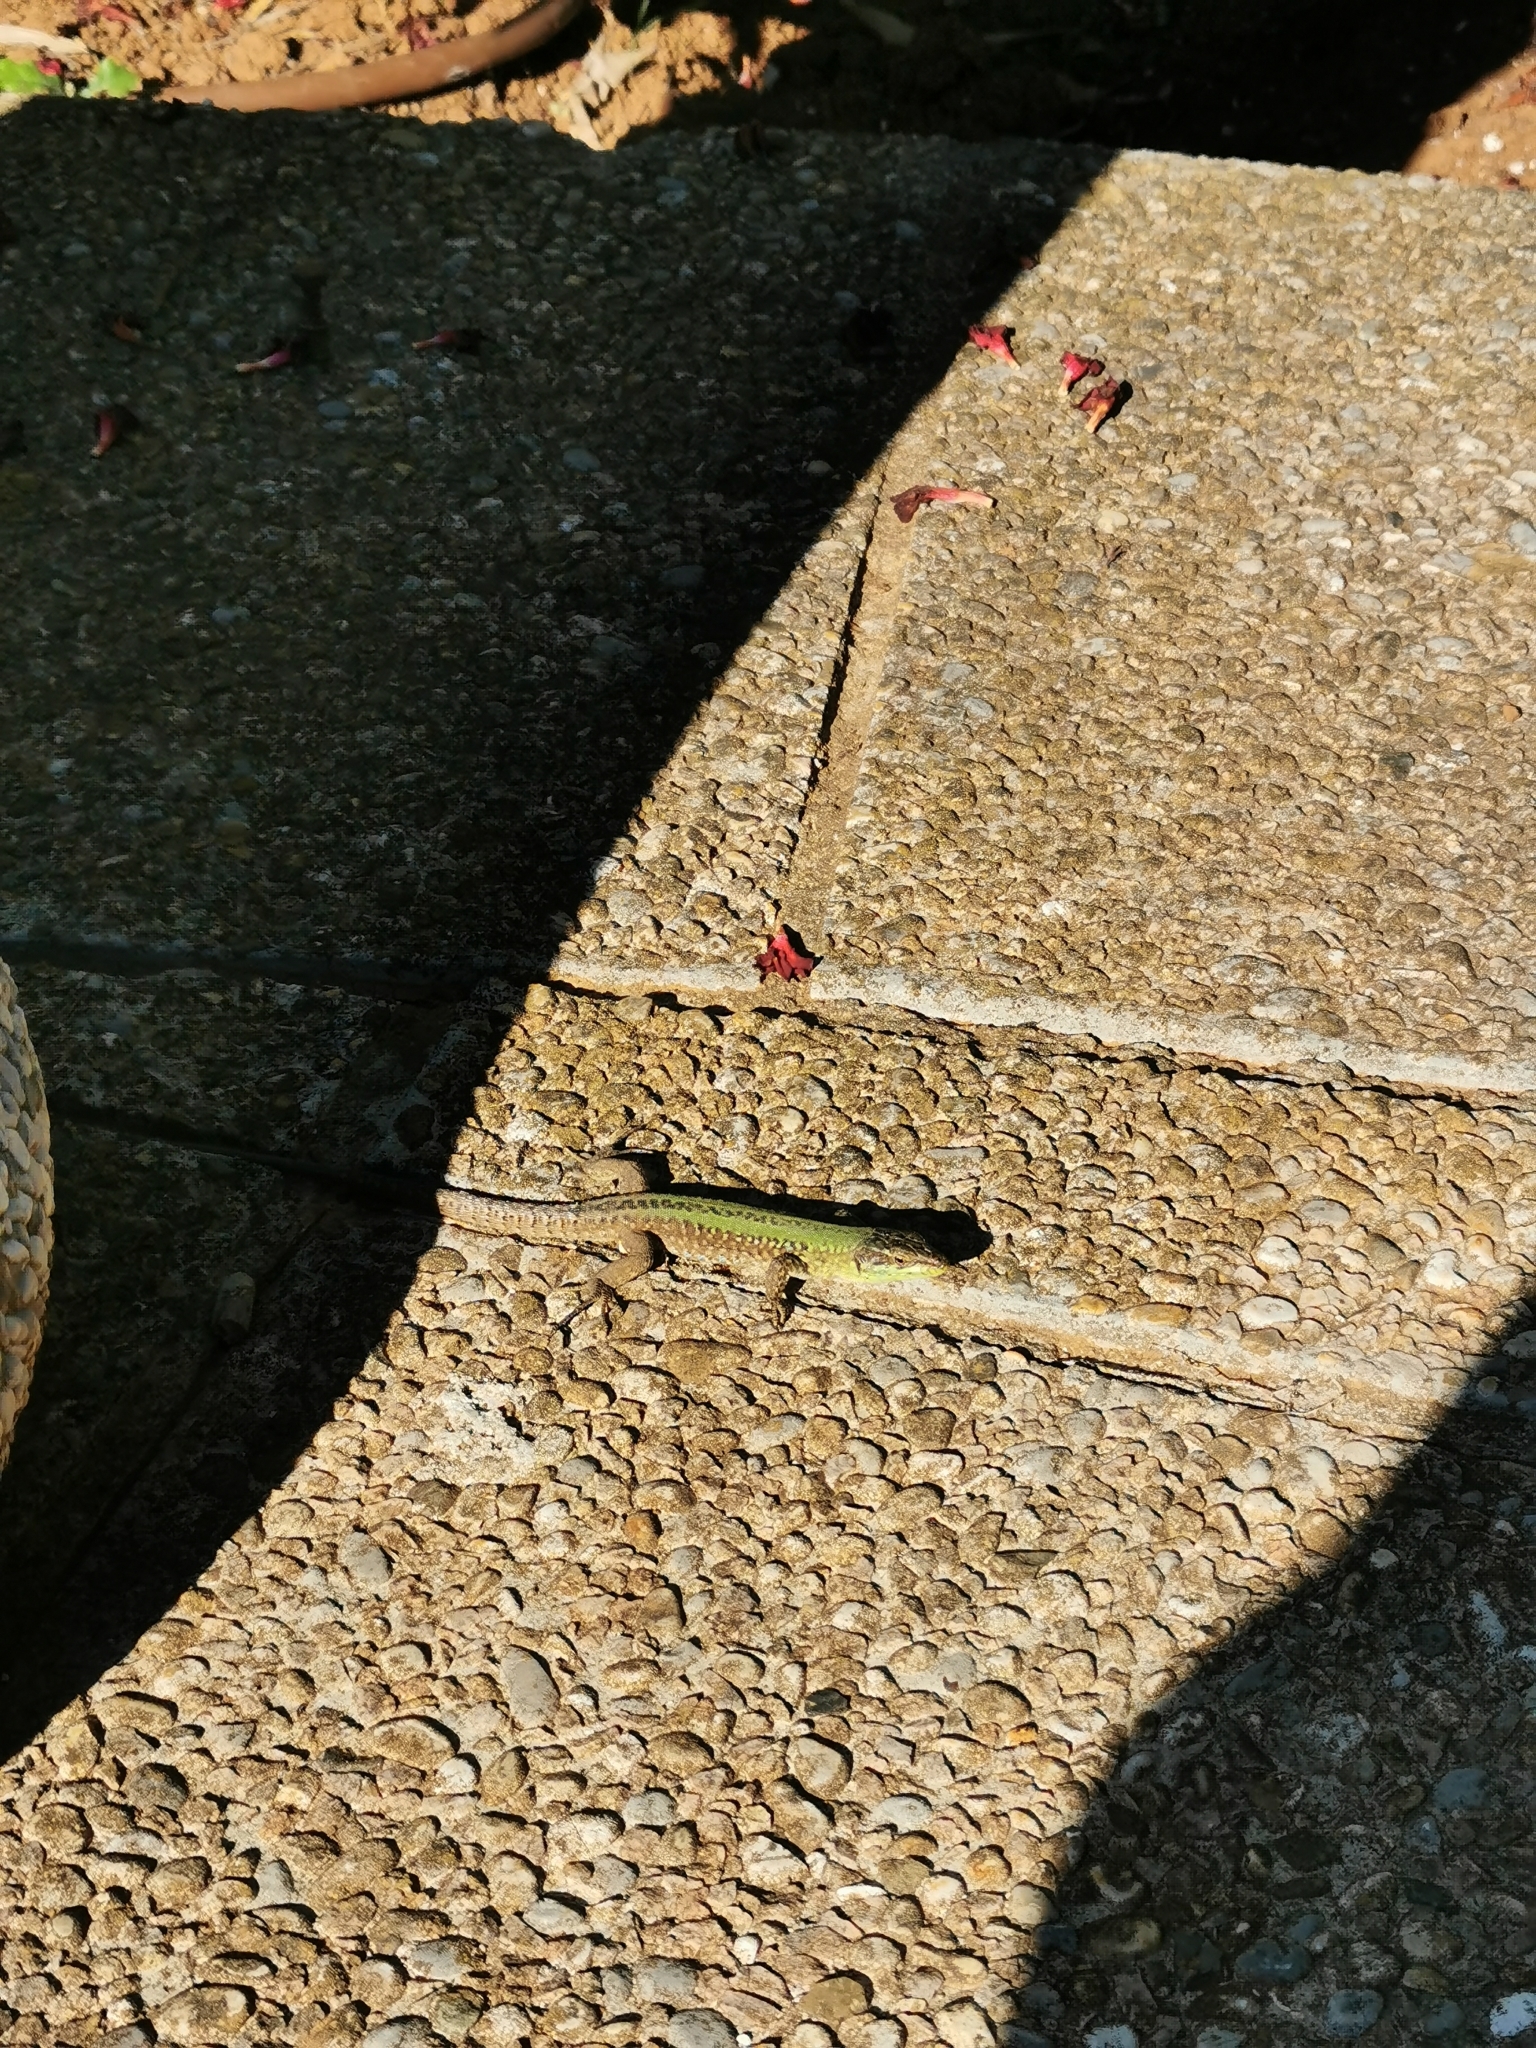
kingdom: Animalia
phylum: Chordata
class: Squamata
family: Lacertidae
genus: Podarcis
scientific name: Podarcis siculus
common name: Italian wall lizard
